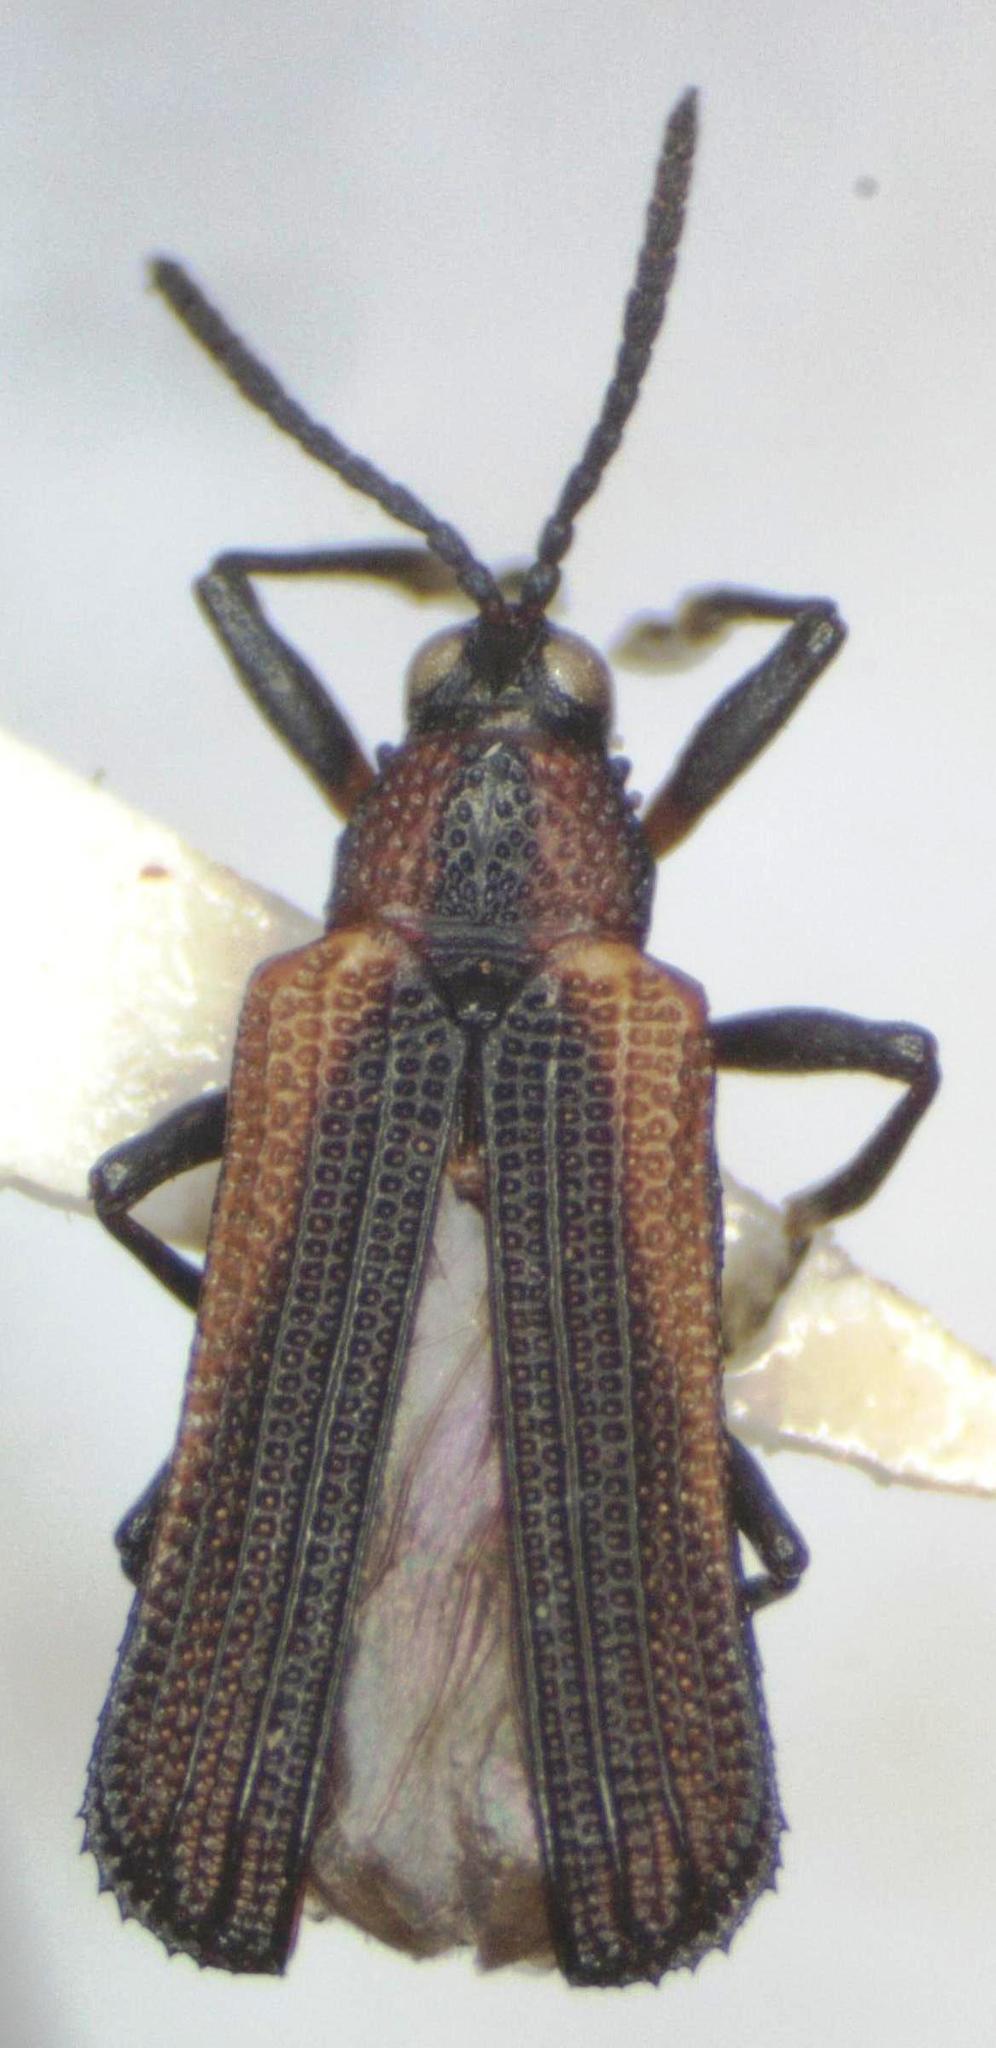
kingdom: Animalia
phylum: Arthropoda
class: Insecta
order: Coleoptera
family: Chrysomelidae
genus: Chalepus
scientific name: Chalepus pici
